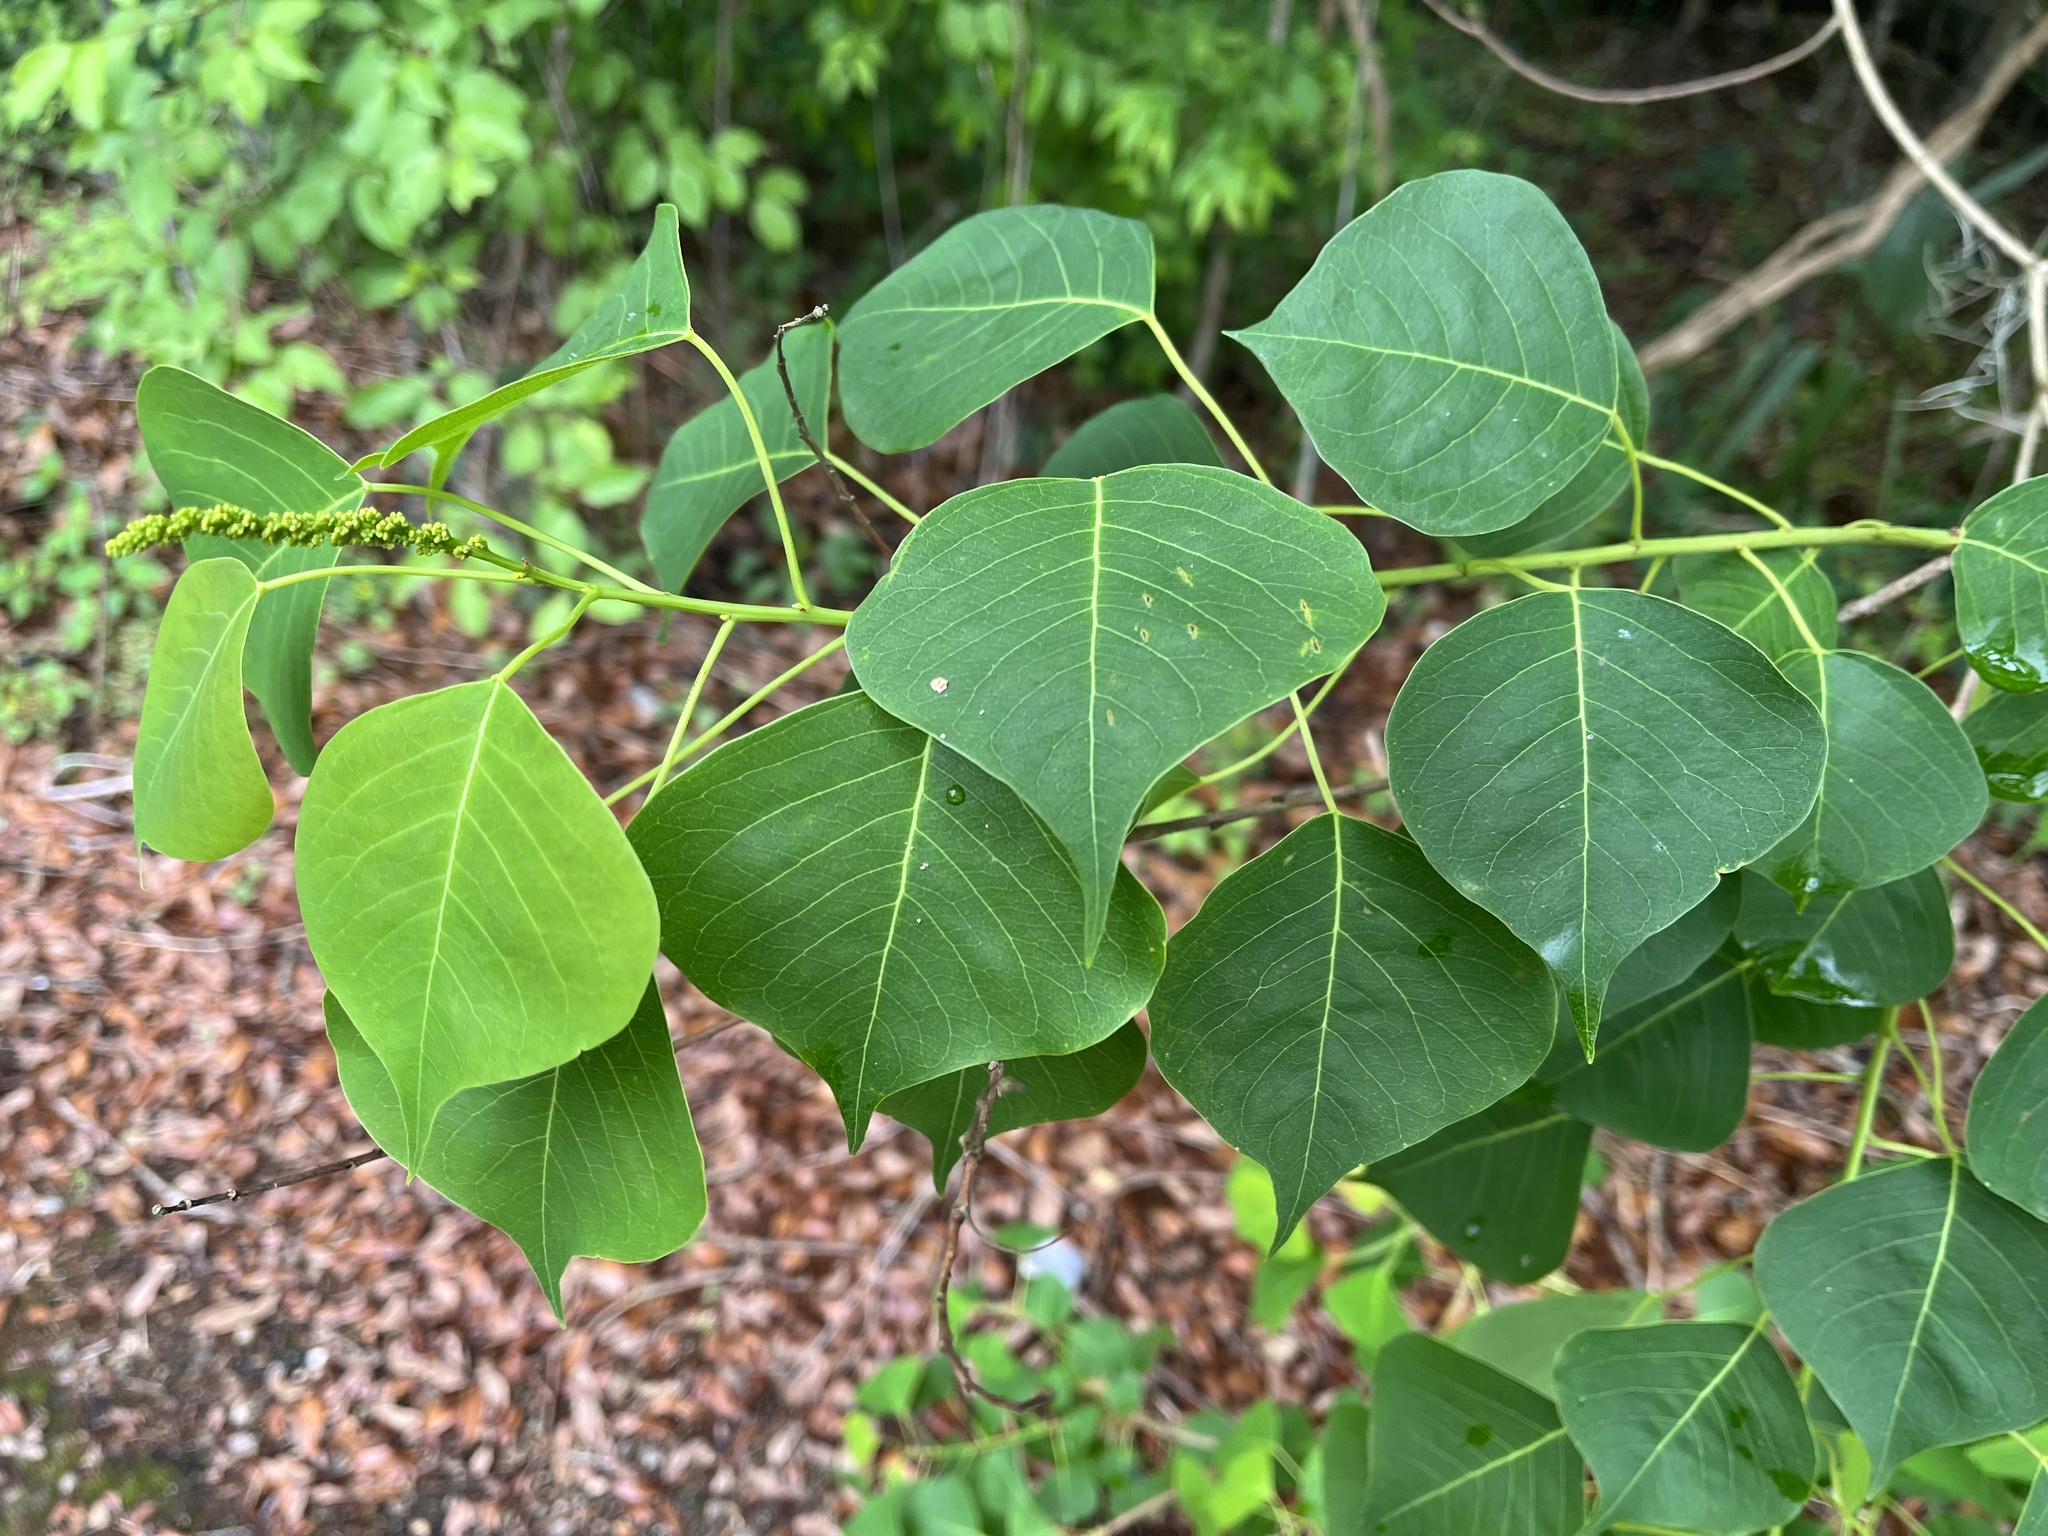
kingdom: Plantae
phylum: Tracheophyta
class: Magnoliopsida
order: Malpighiales
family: Euphorbiaceae
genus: Triadica
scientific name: Triadica sebifera
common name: Chinese tallow
